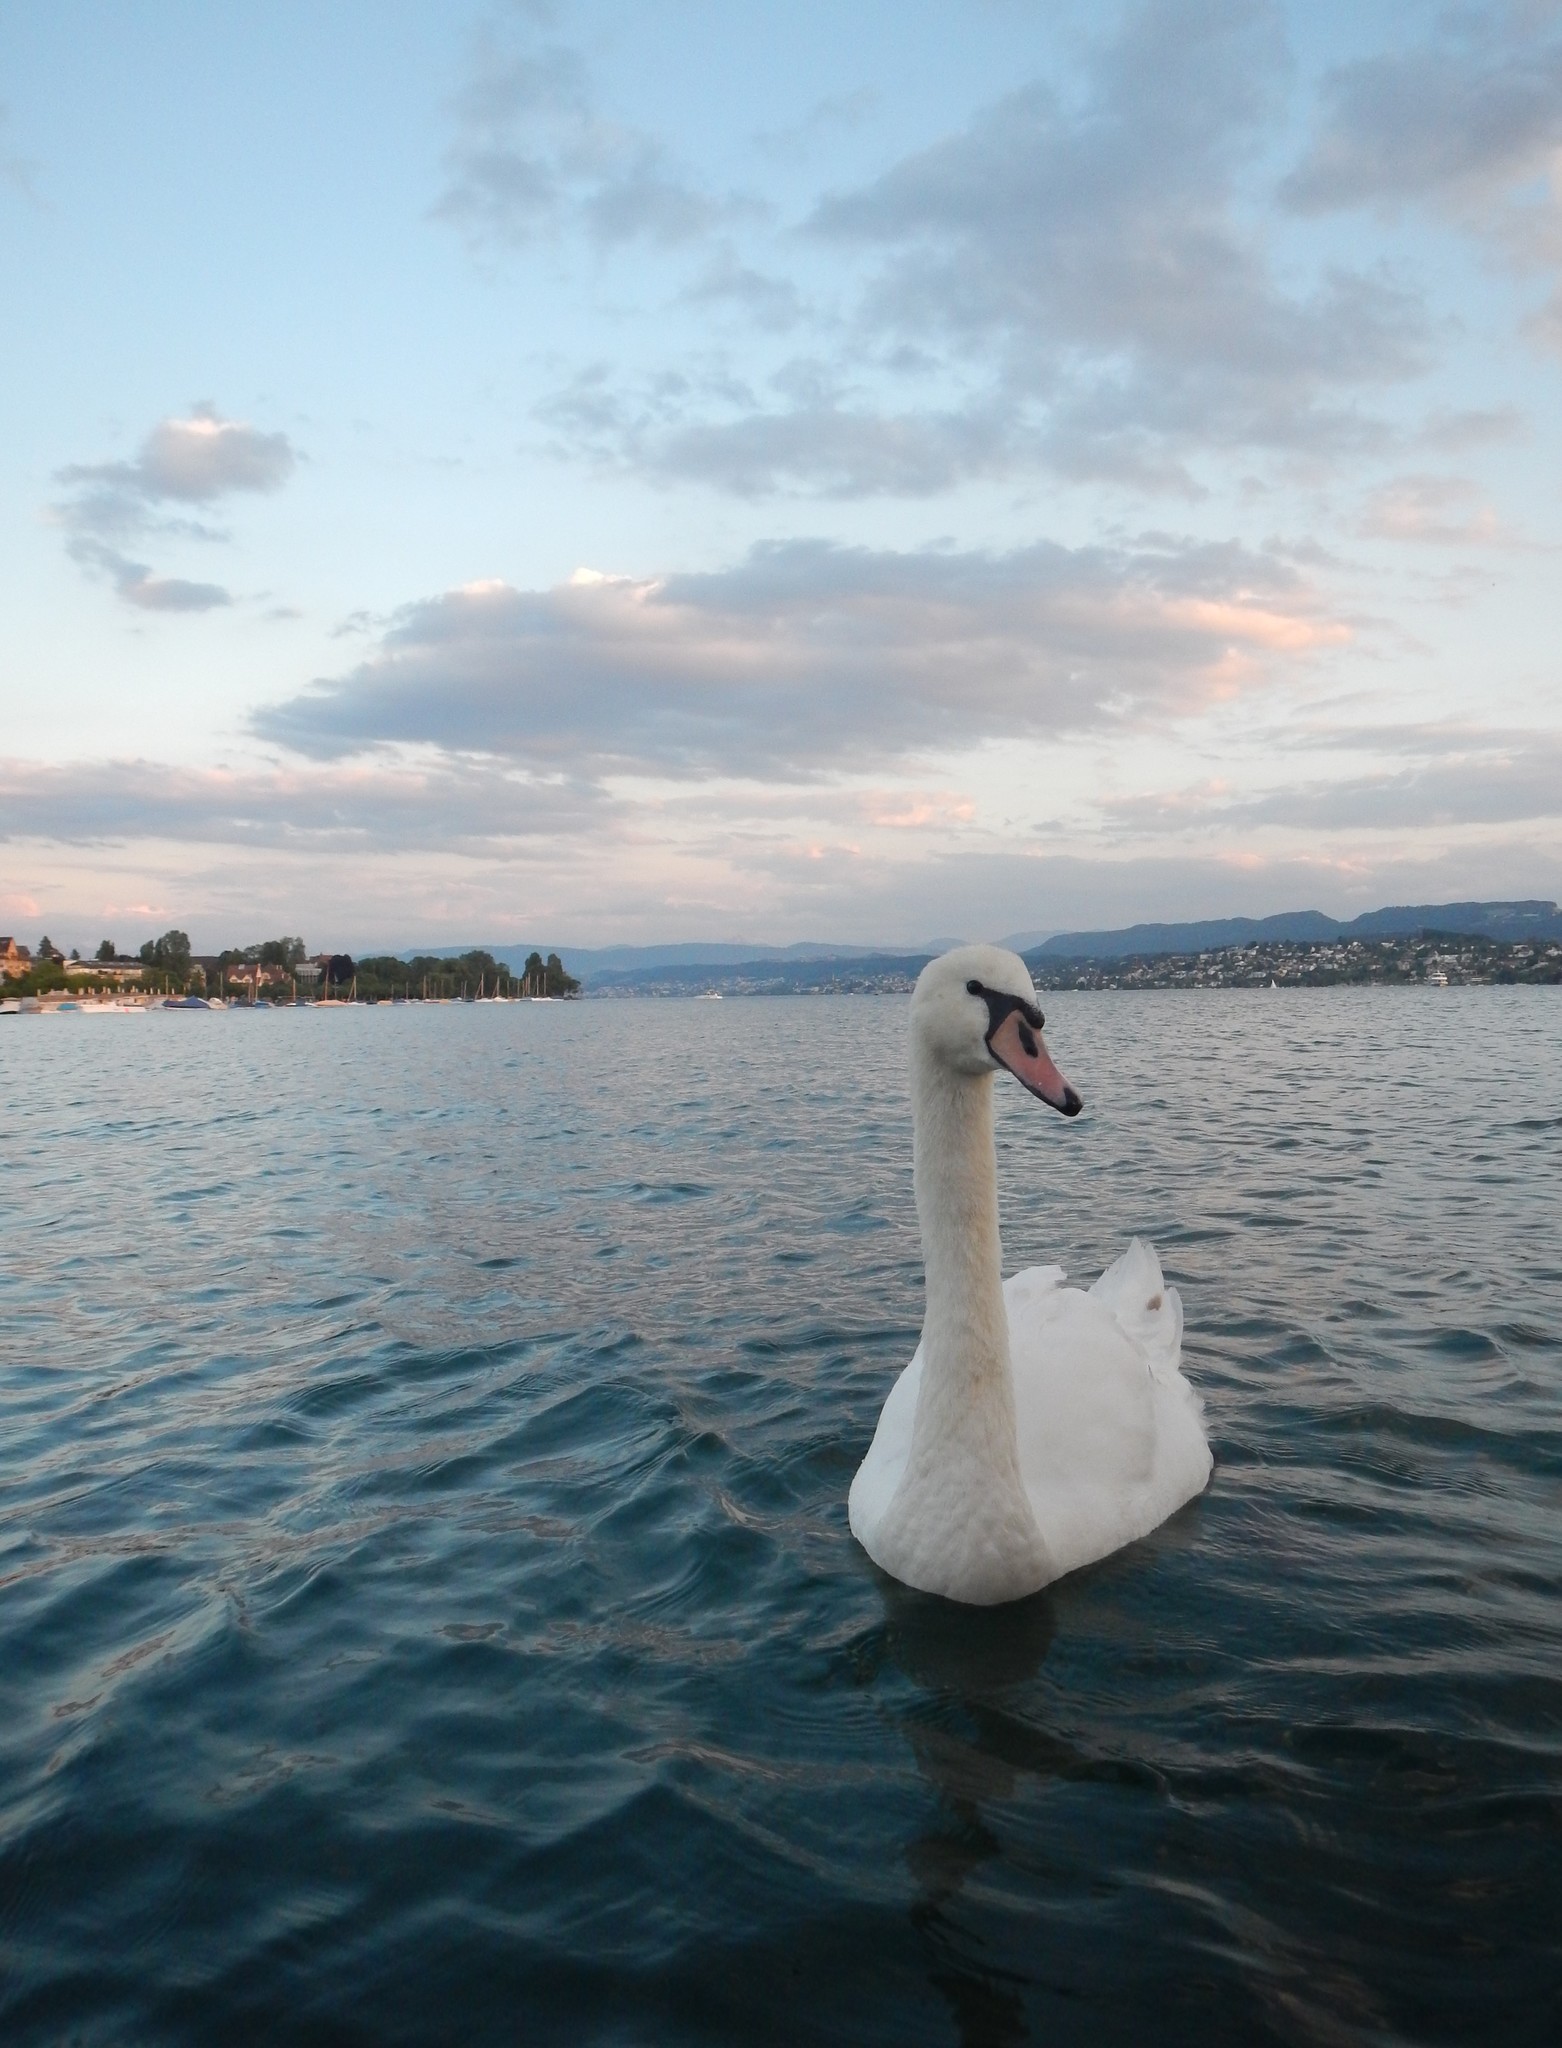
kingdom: Animalia
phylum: Chordata
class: Aves
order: Anseriformes
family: Anatidae
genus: Cygnus
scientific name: Cygnus olor
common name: Mute swan
